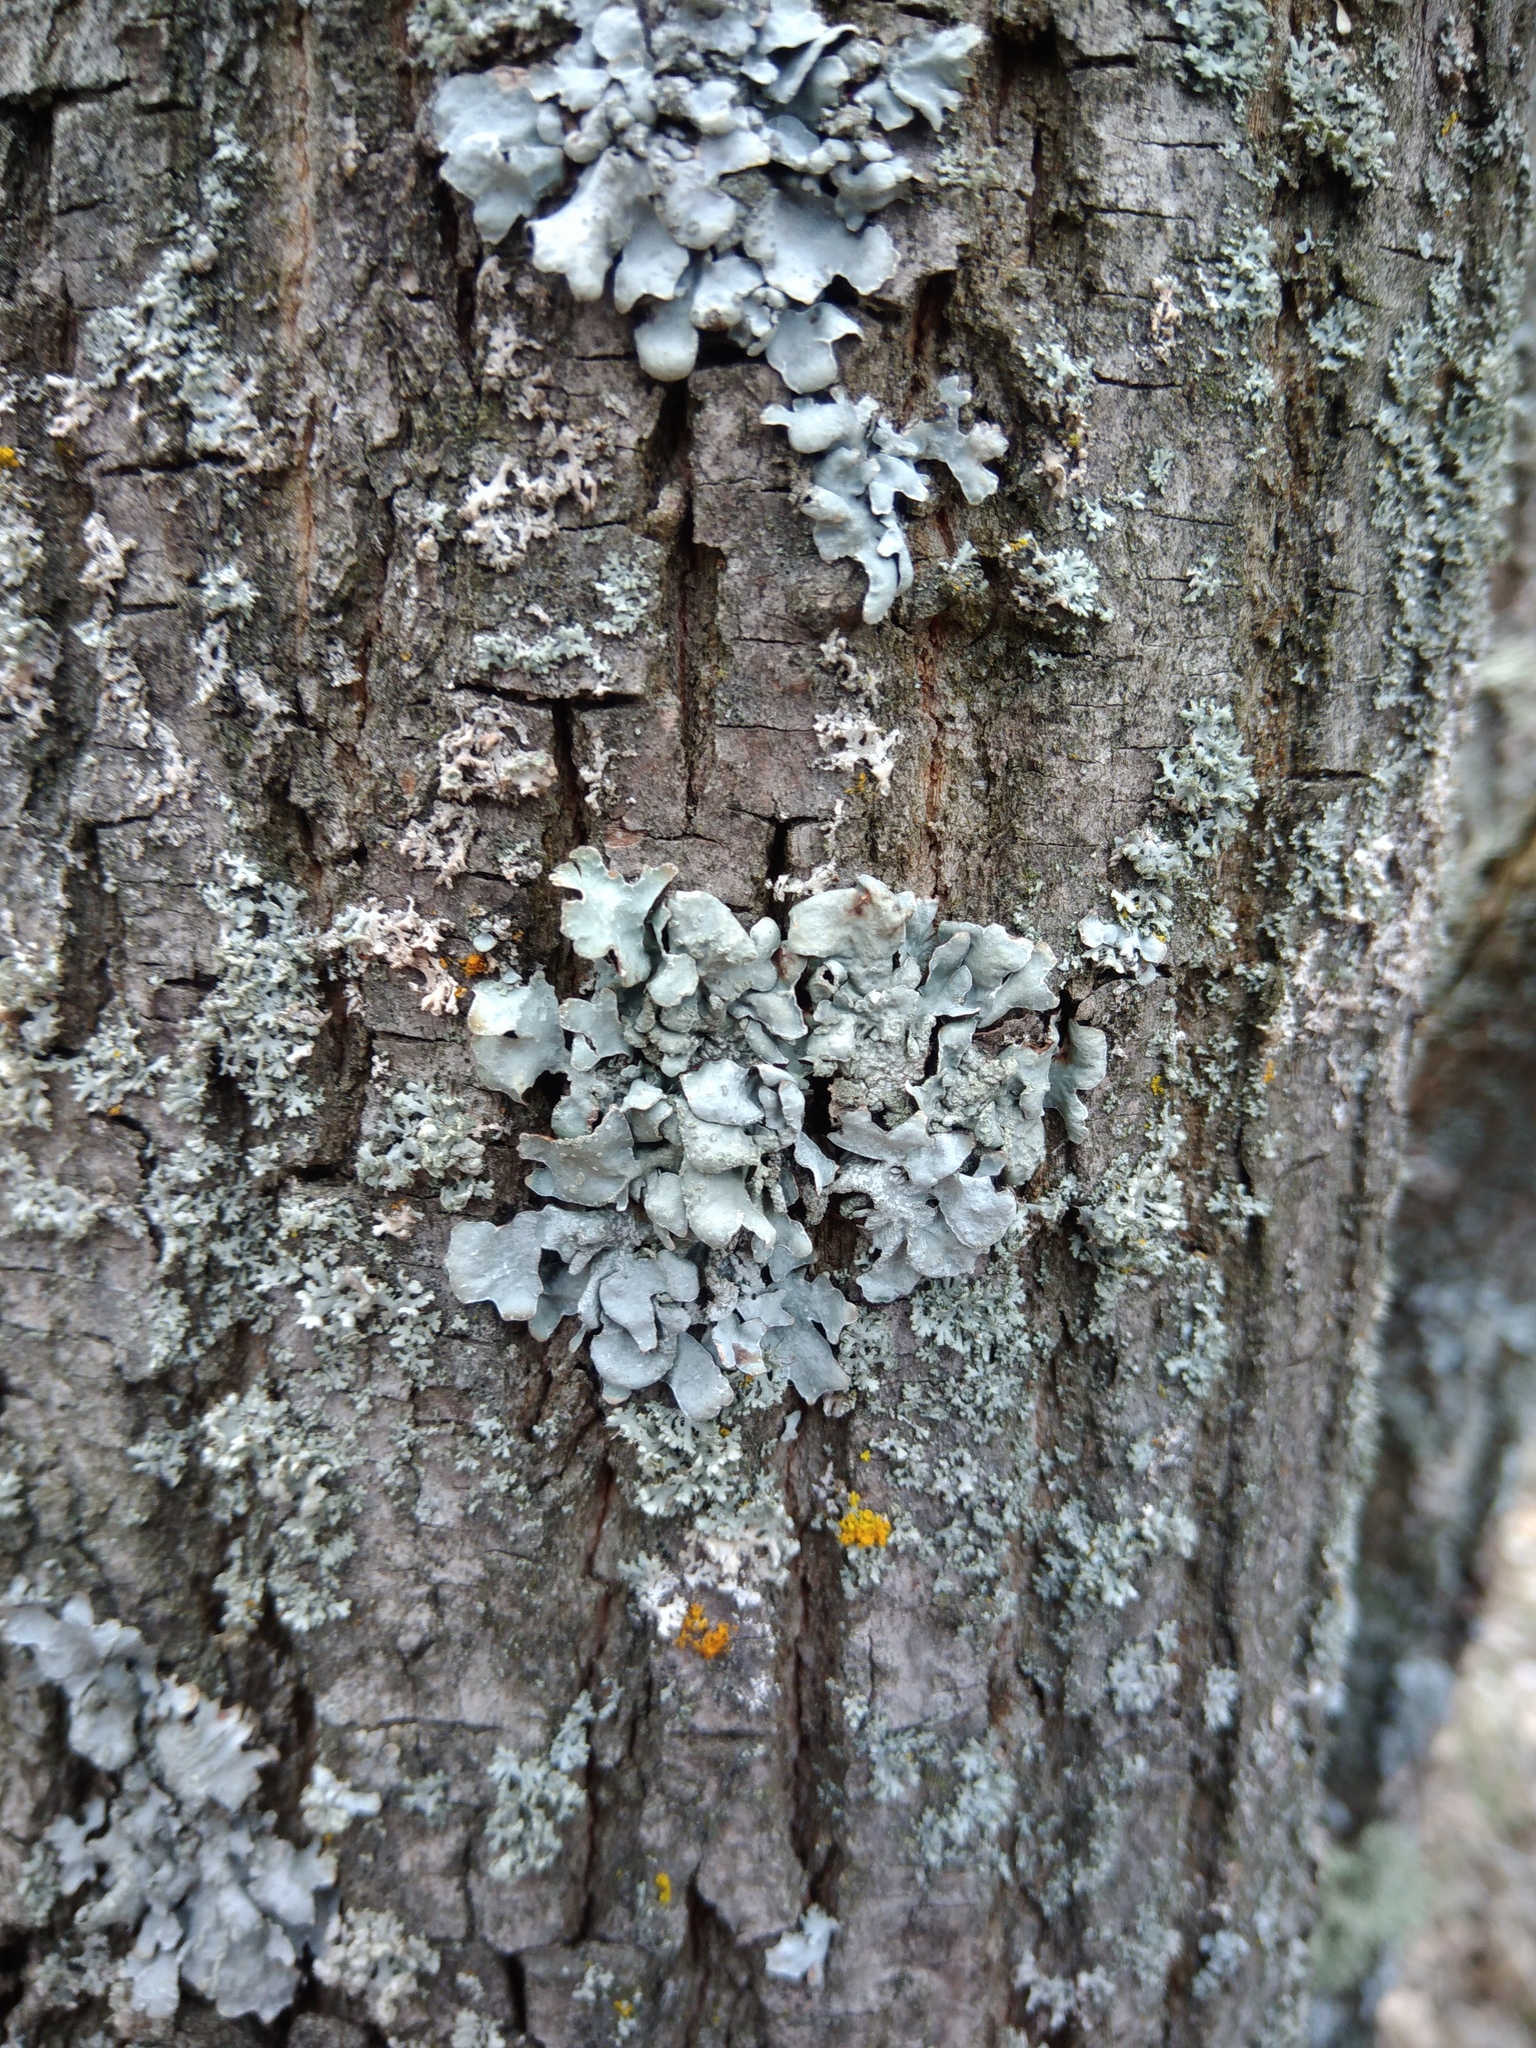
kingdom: Fungi
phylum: Ascomycota
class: Lecanoromycetes
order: Lecanorales
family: Parmeliaceae
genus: Parmelia
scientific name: Parmelia sulcata
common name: Netted shield lichen
